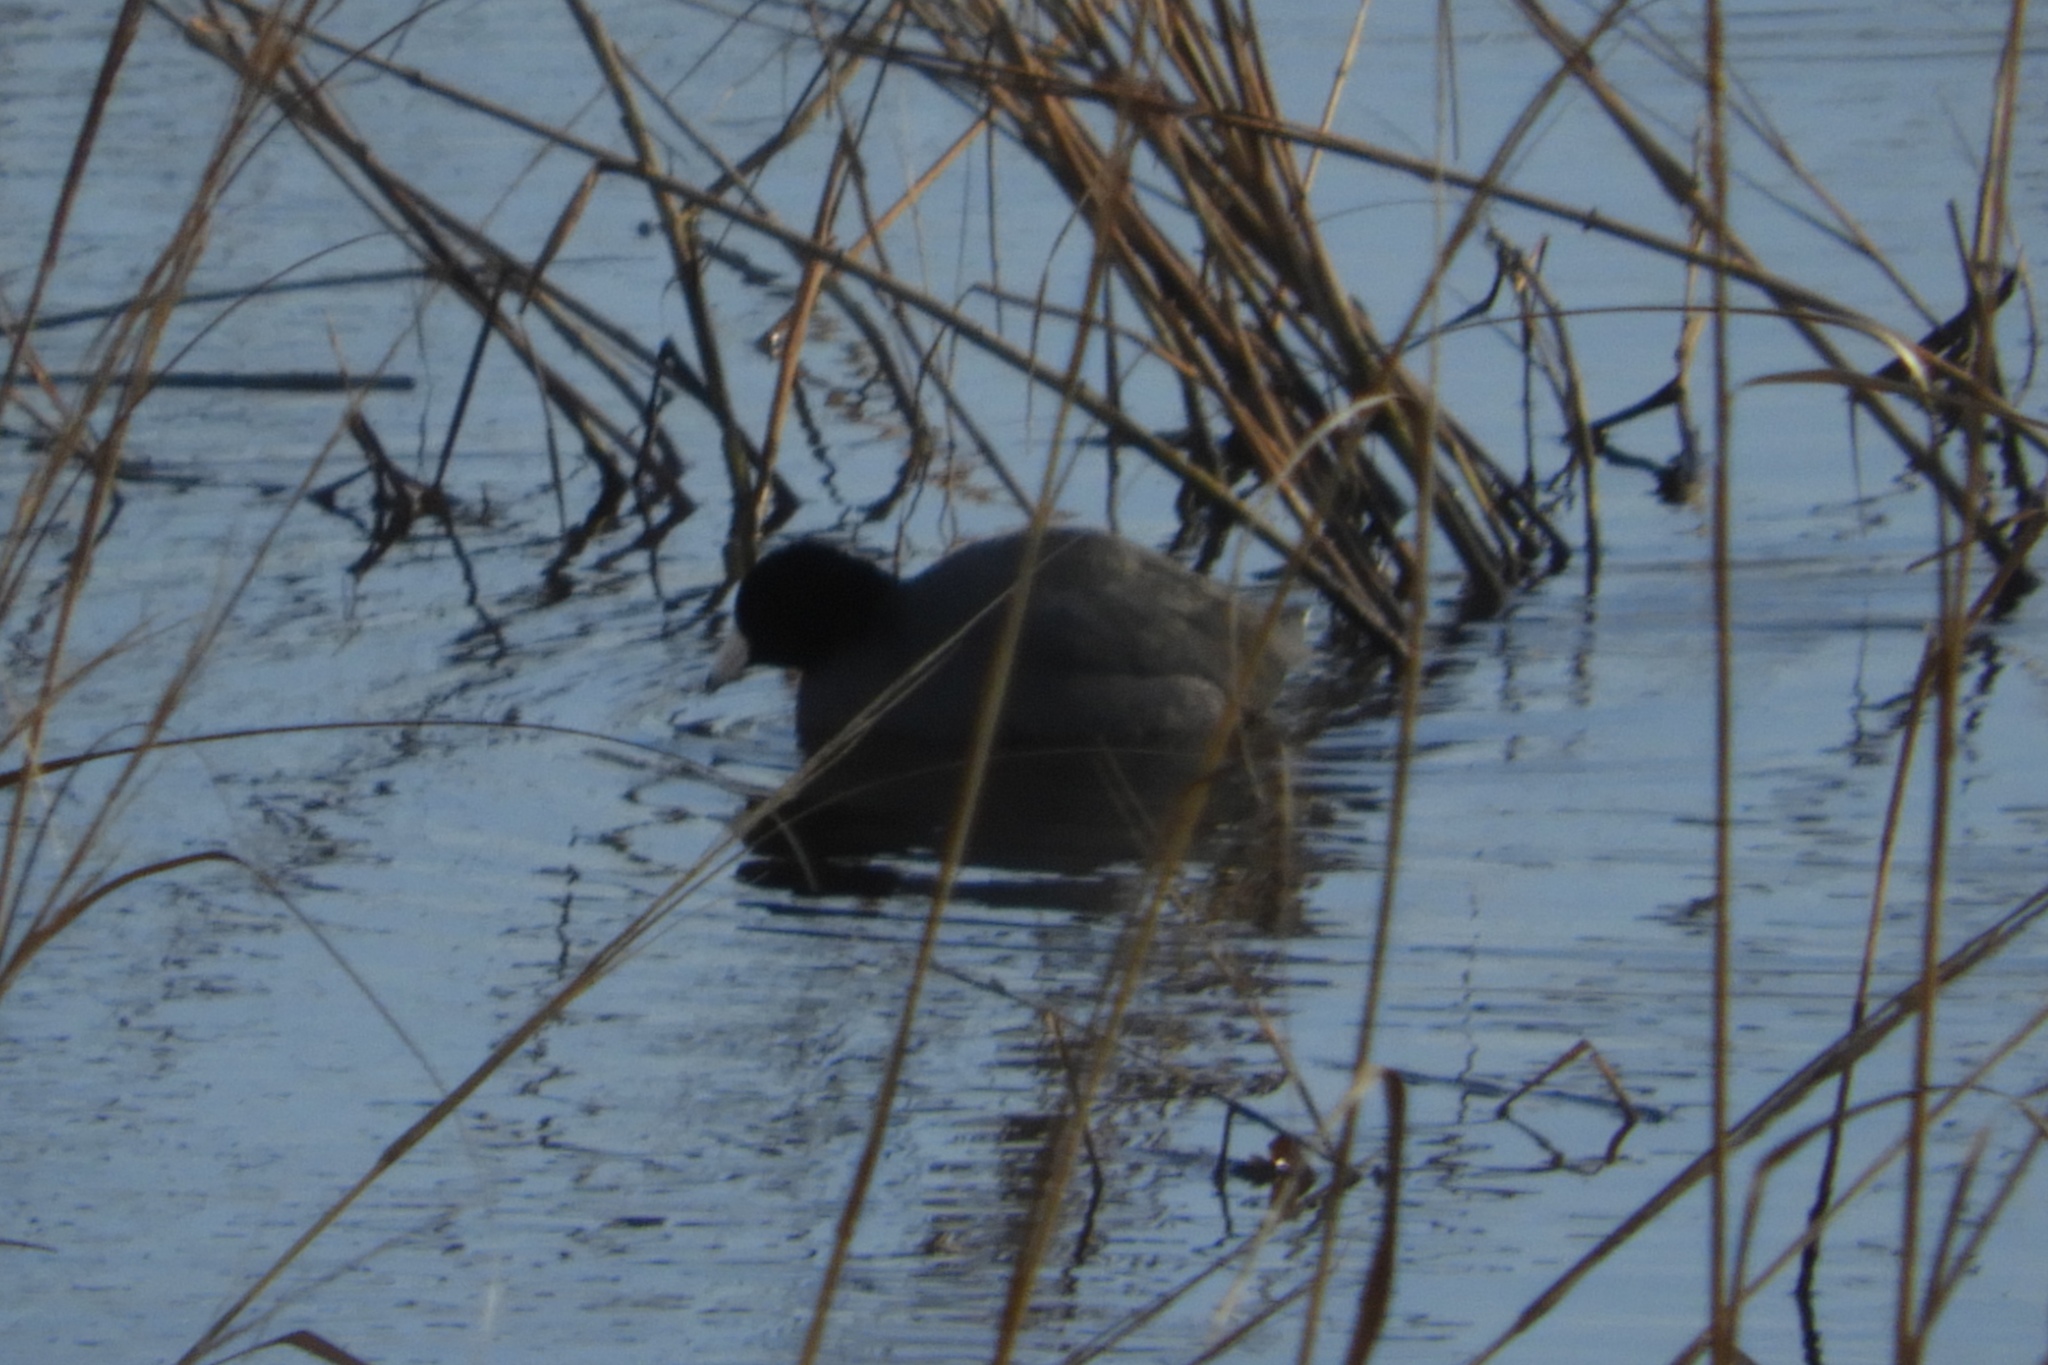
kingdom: Animalia
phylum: Chordata
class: Aves
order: Gruiformes
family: Rallidae
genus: Fulica
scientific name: Fulica americana
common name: American coot
